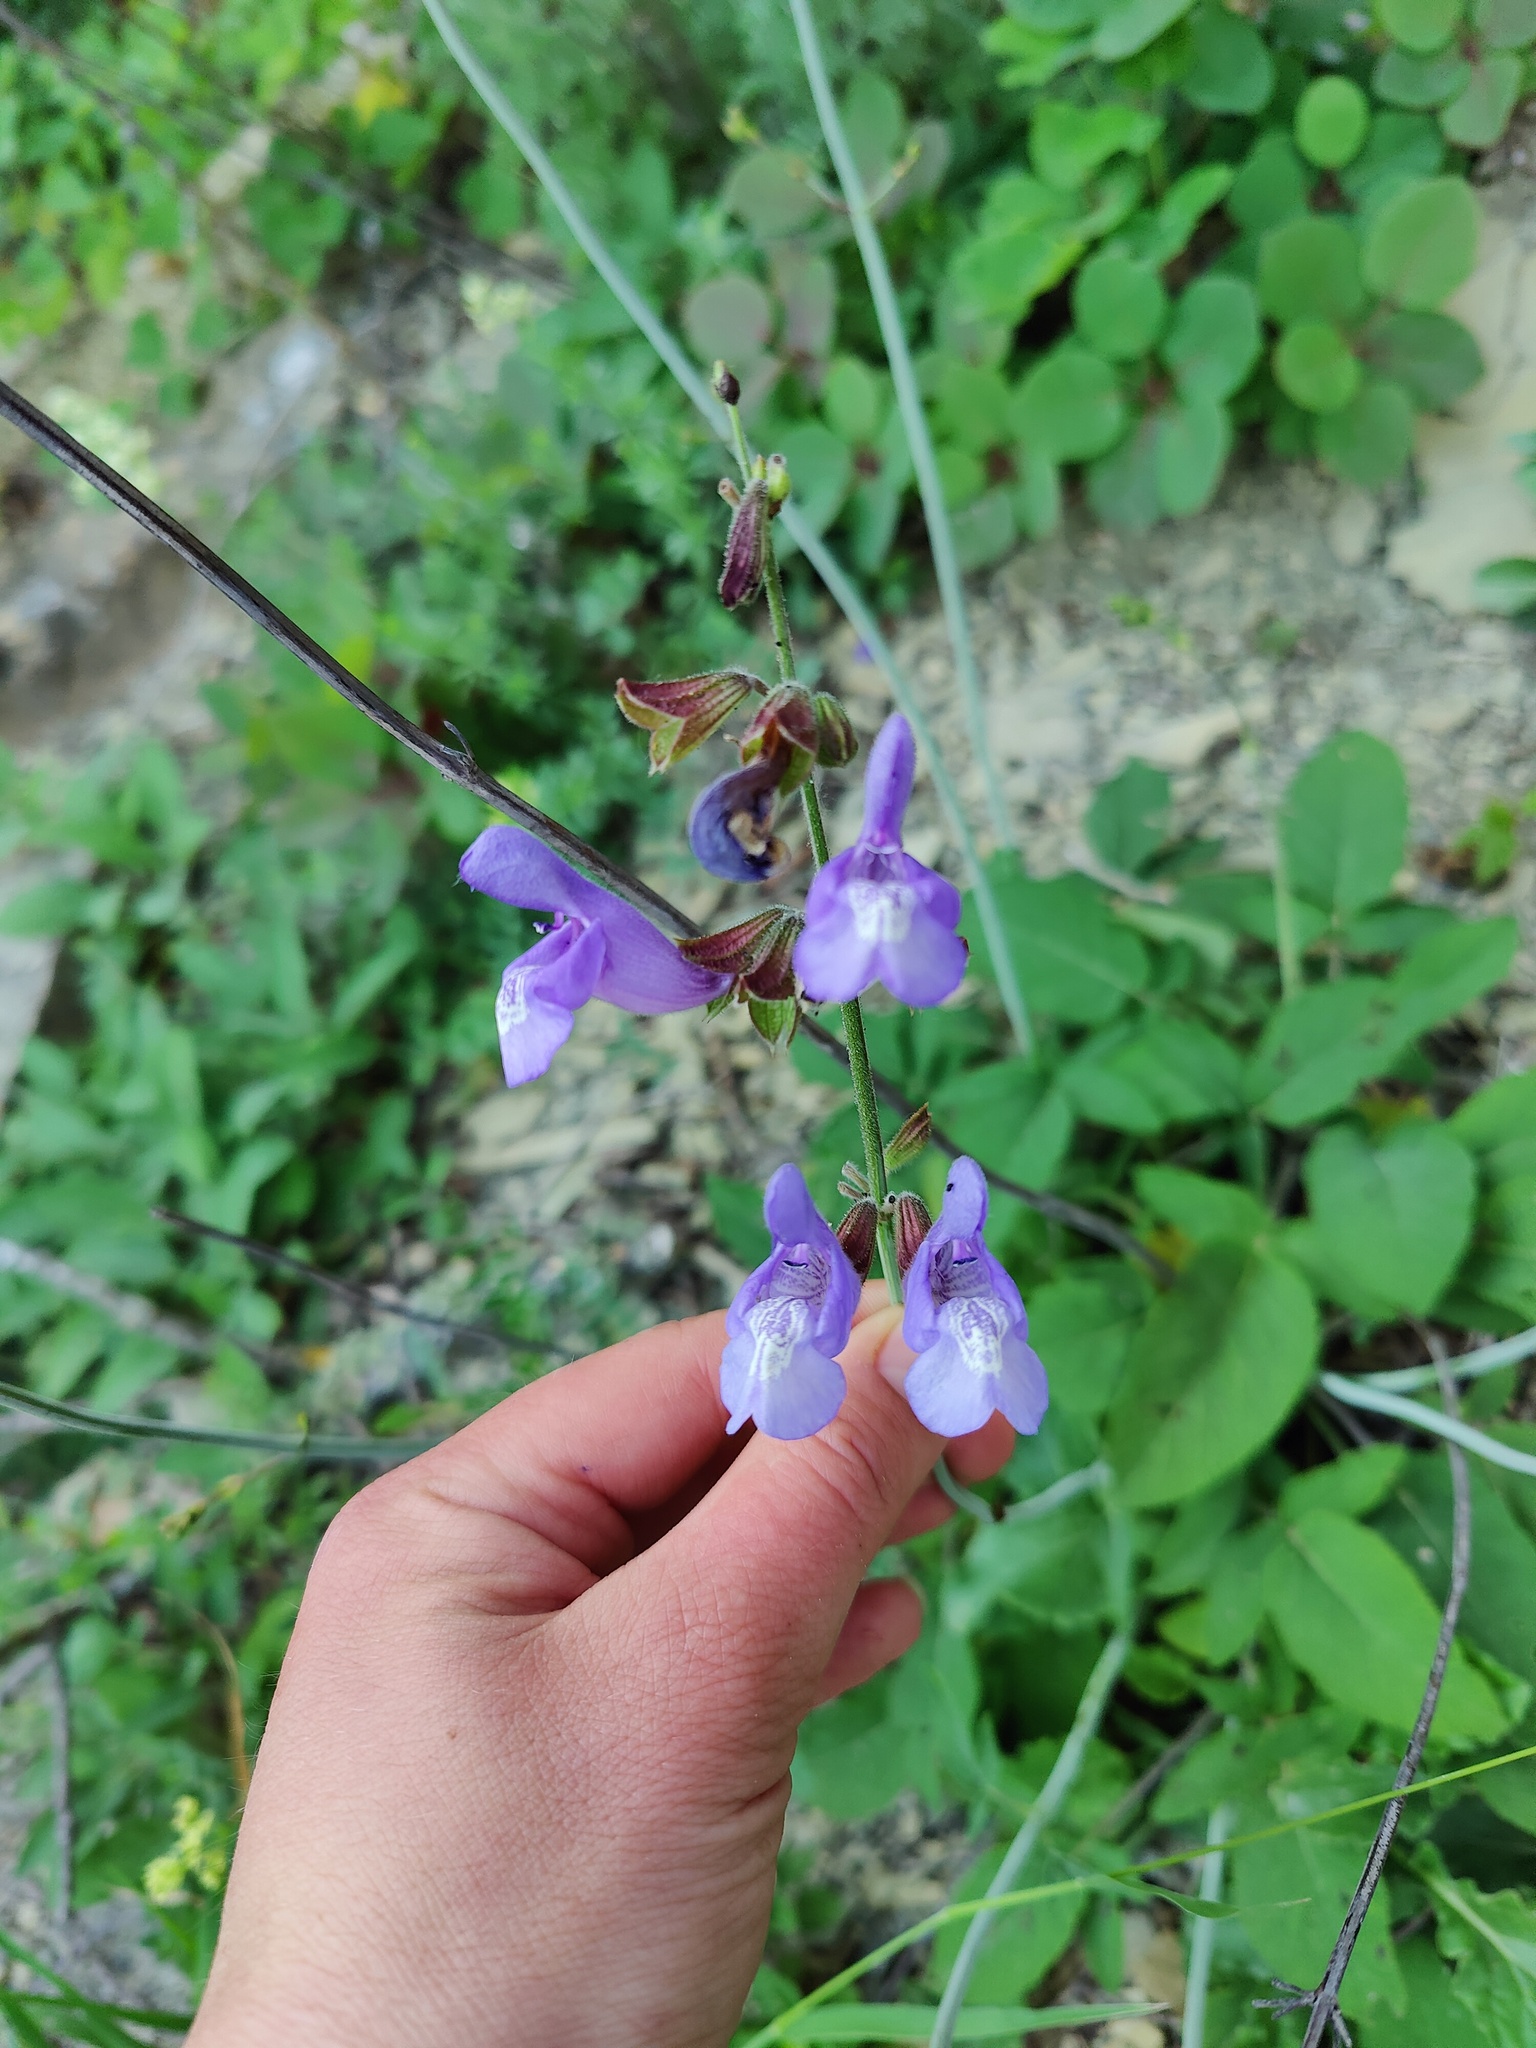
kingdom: Plantae
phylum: Tracheophyta
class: Magnoliopsida
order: Lamiales
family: Lamiaceae
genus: Salvia
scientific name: Salvia ringens
